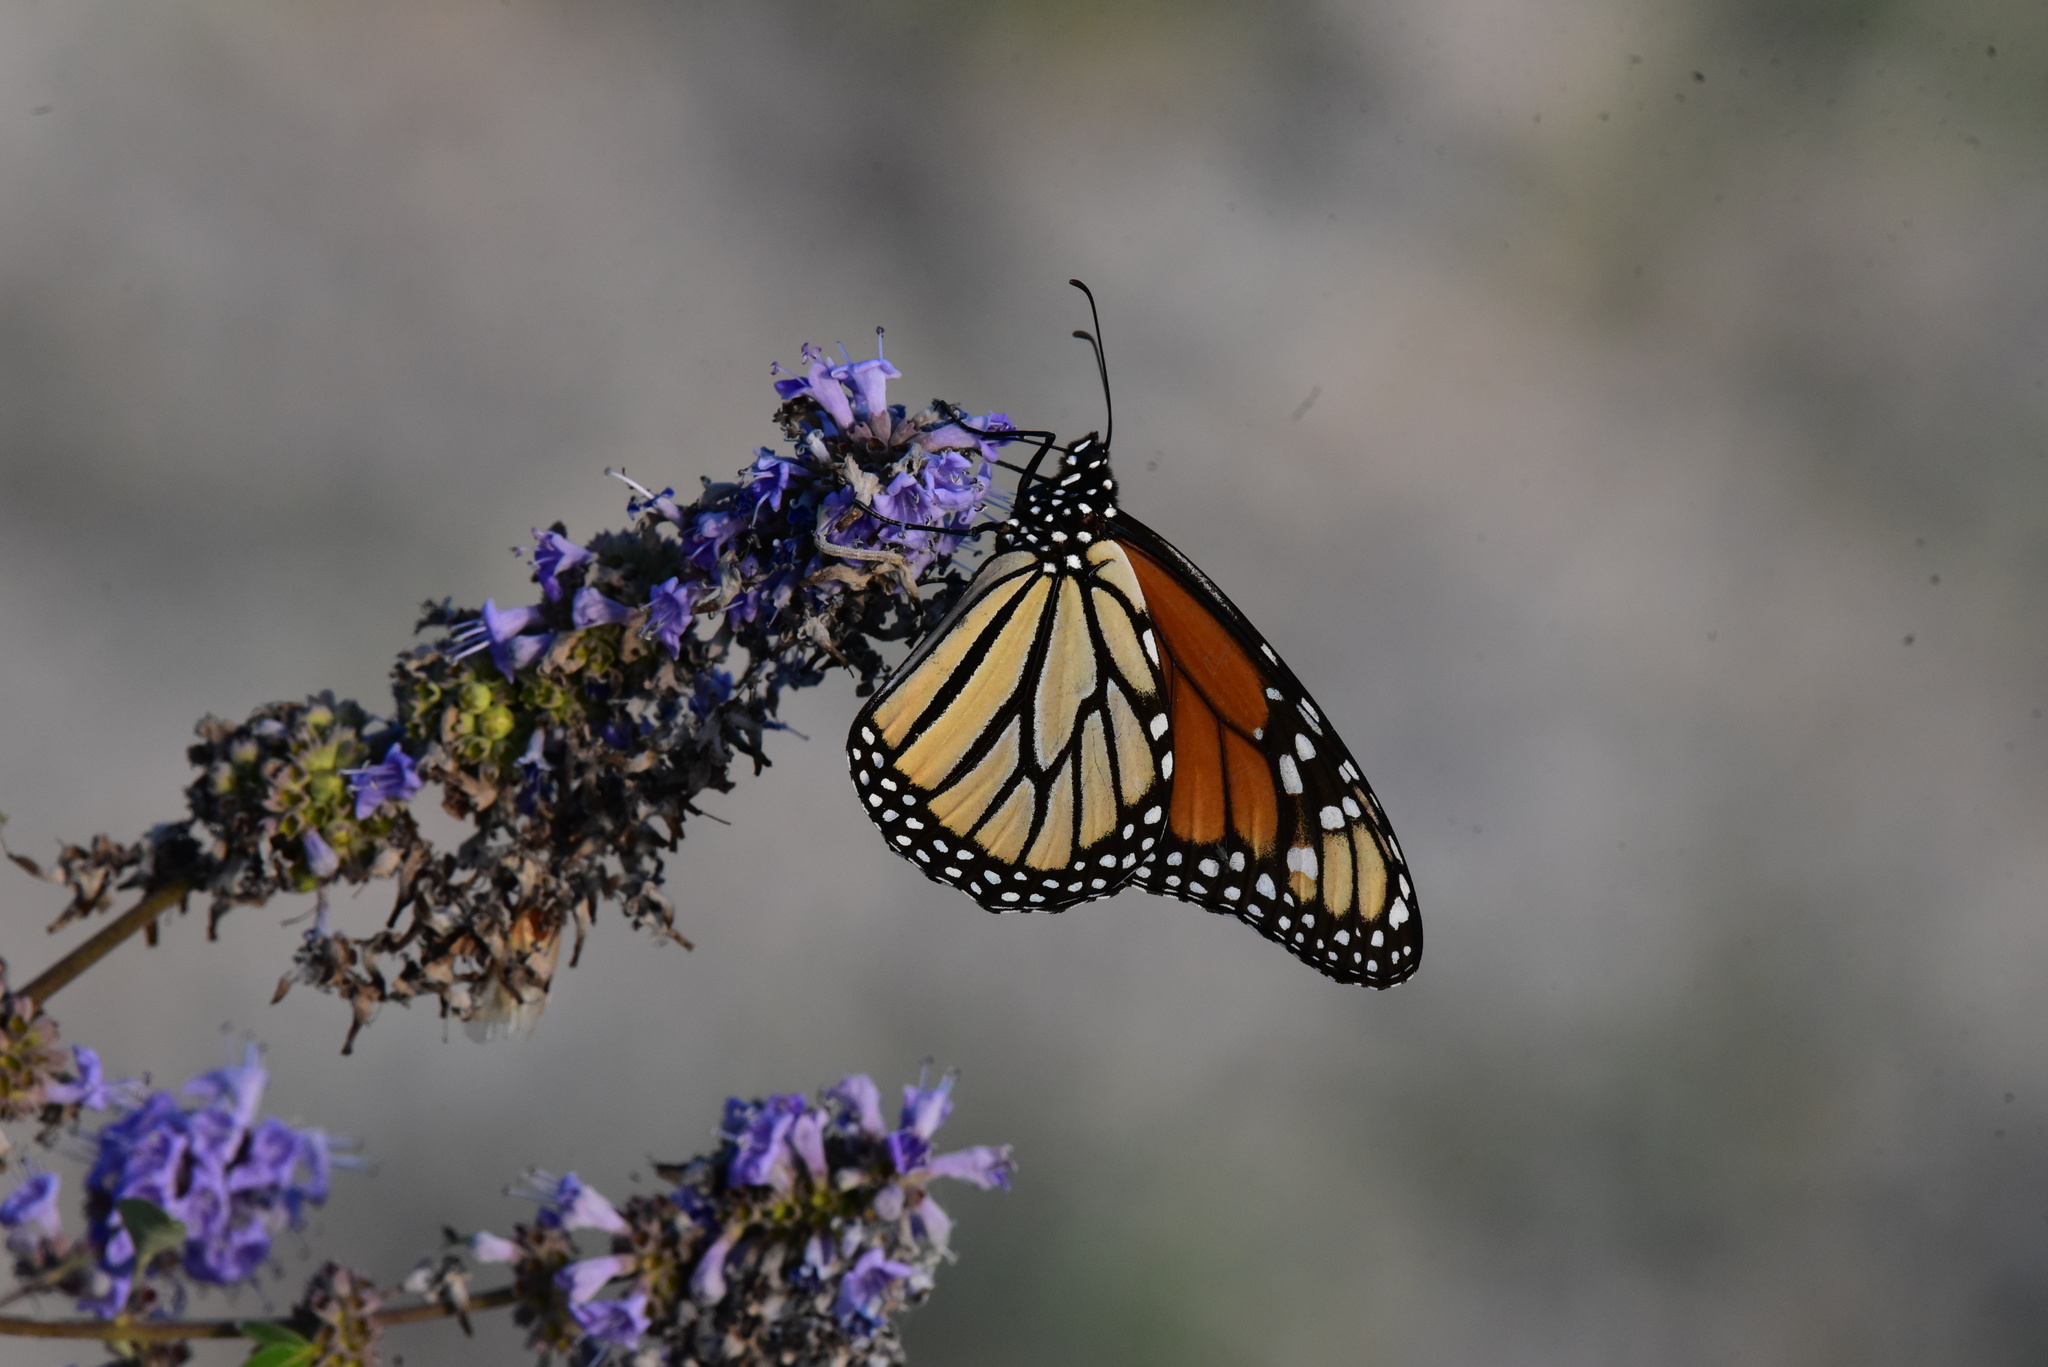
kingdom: Animalia
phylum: Arthropoda
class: Insecta
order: Lepidoptera
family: Nymphalidae
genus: Danaus
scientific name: Danaus plexippus
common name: Monarch
